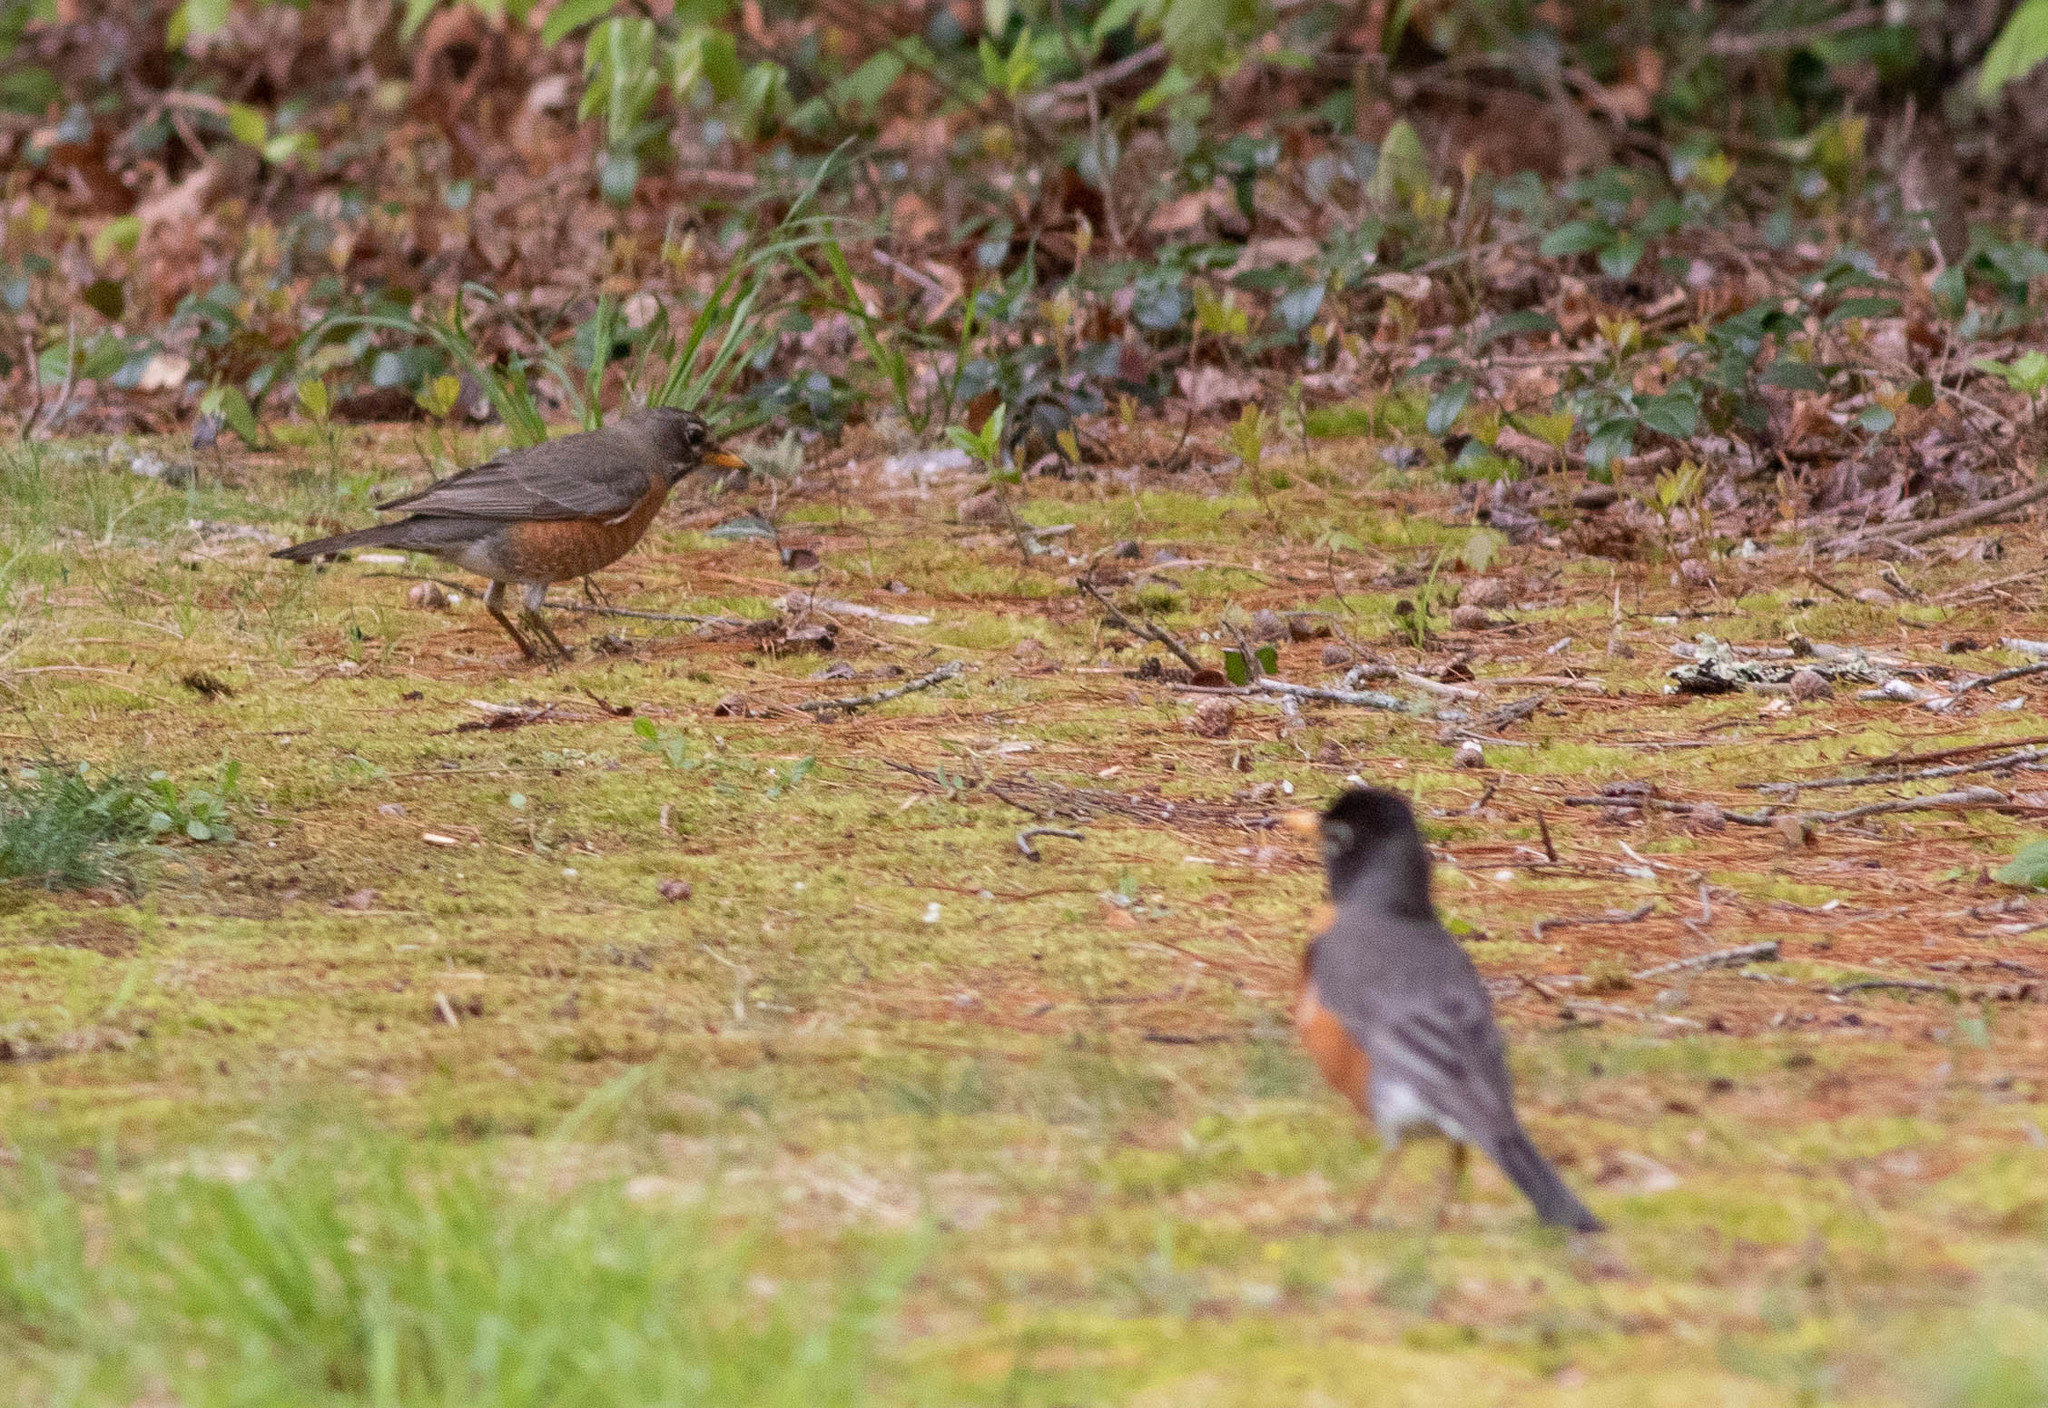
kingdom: Animalia
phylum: Chordata
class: Aves
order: Passeriformes
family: Turdidae
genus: Turdus
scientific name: Turdus migratorius
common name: American robin
